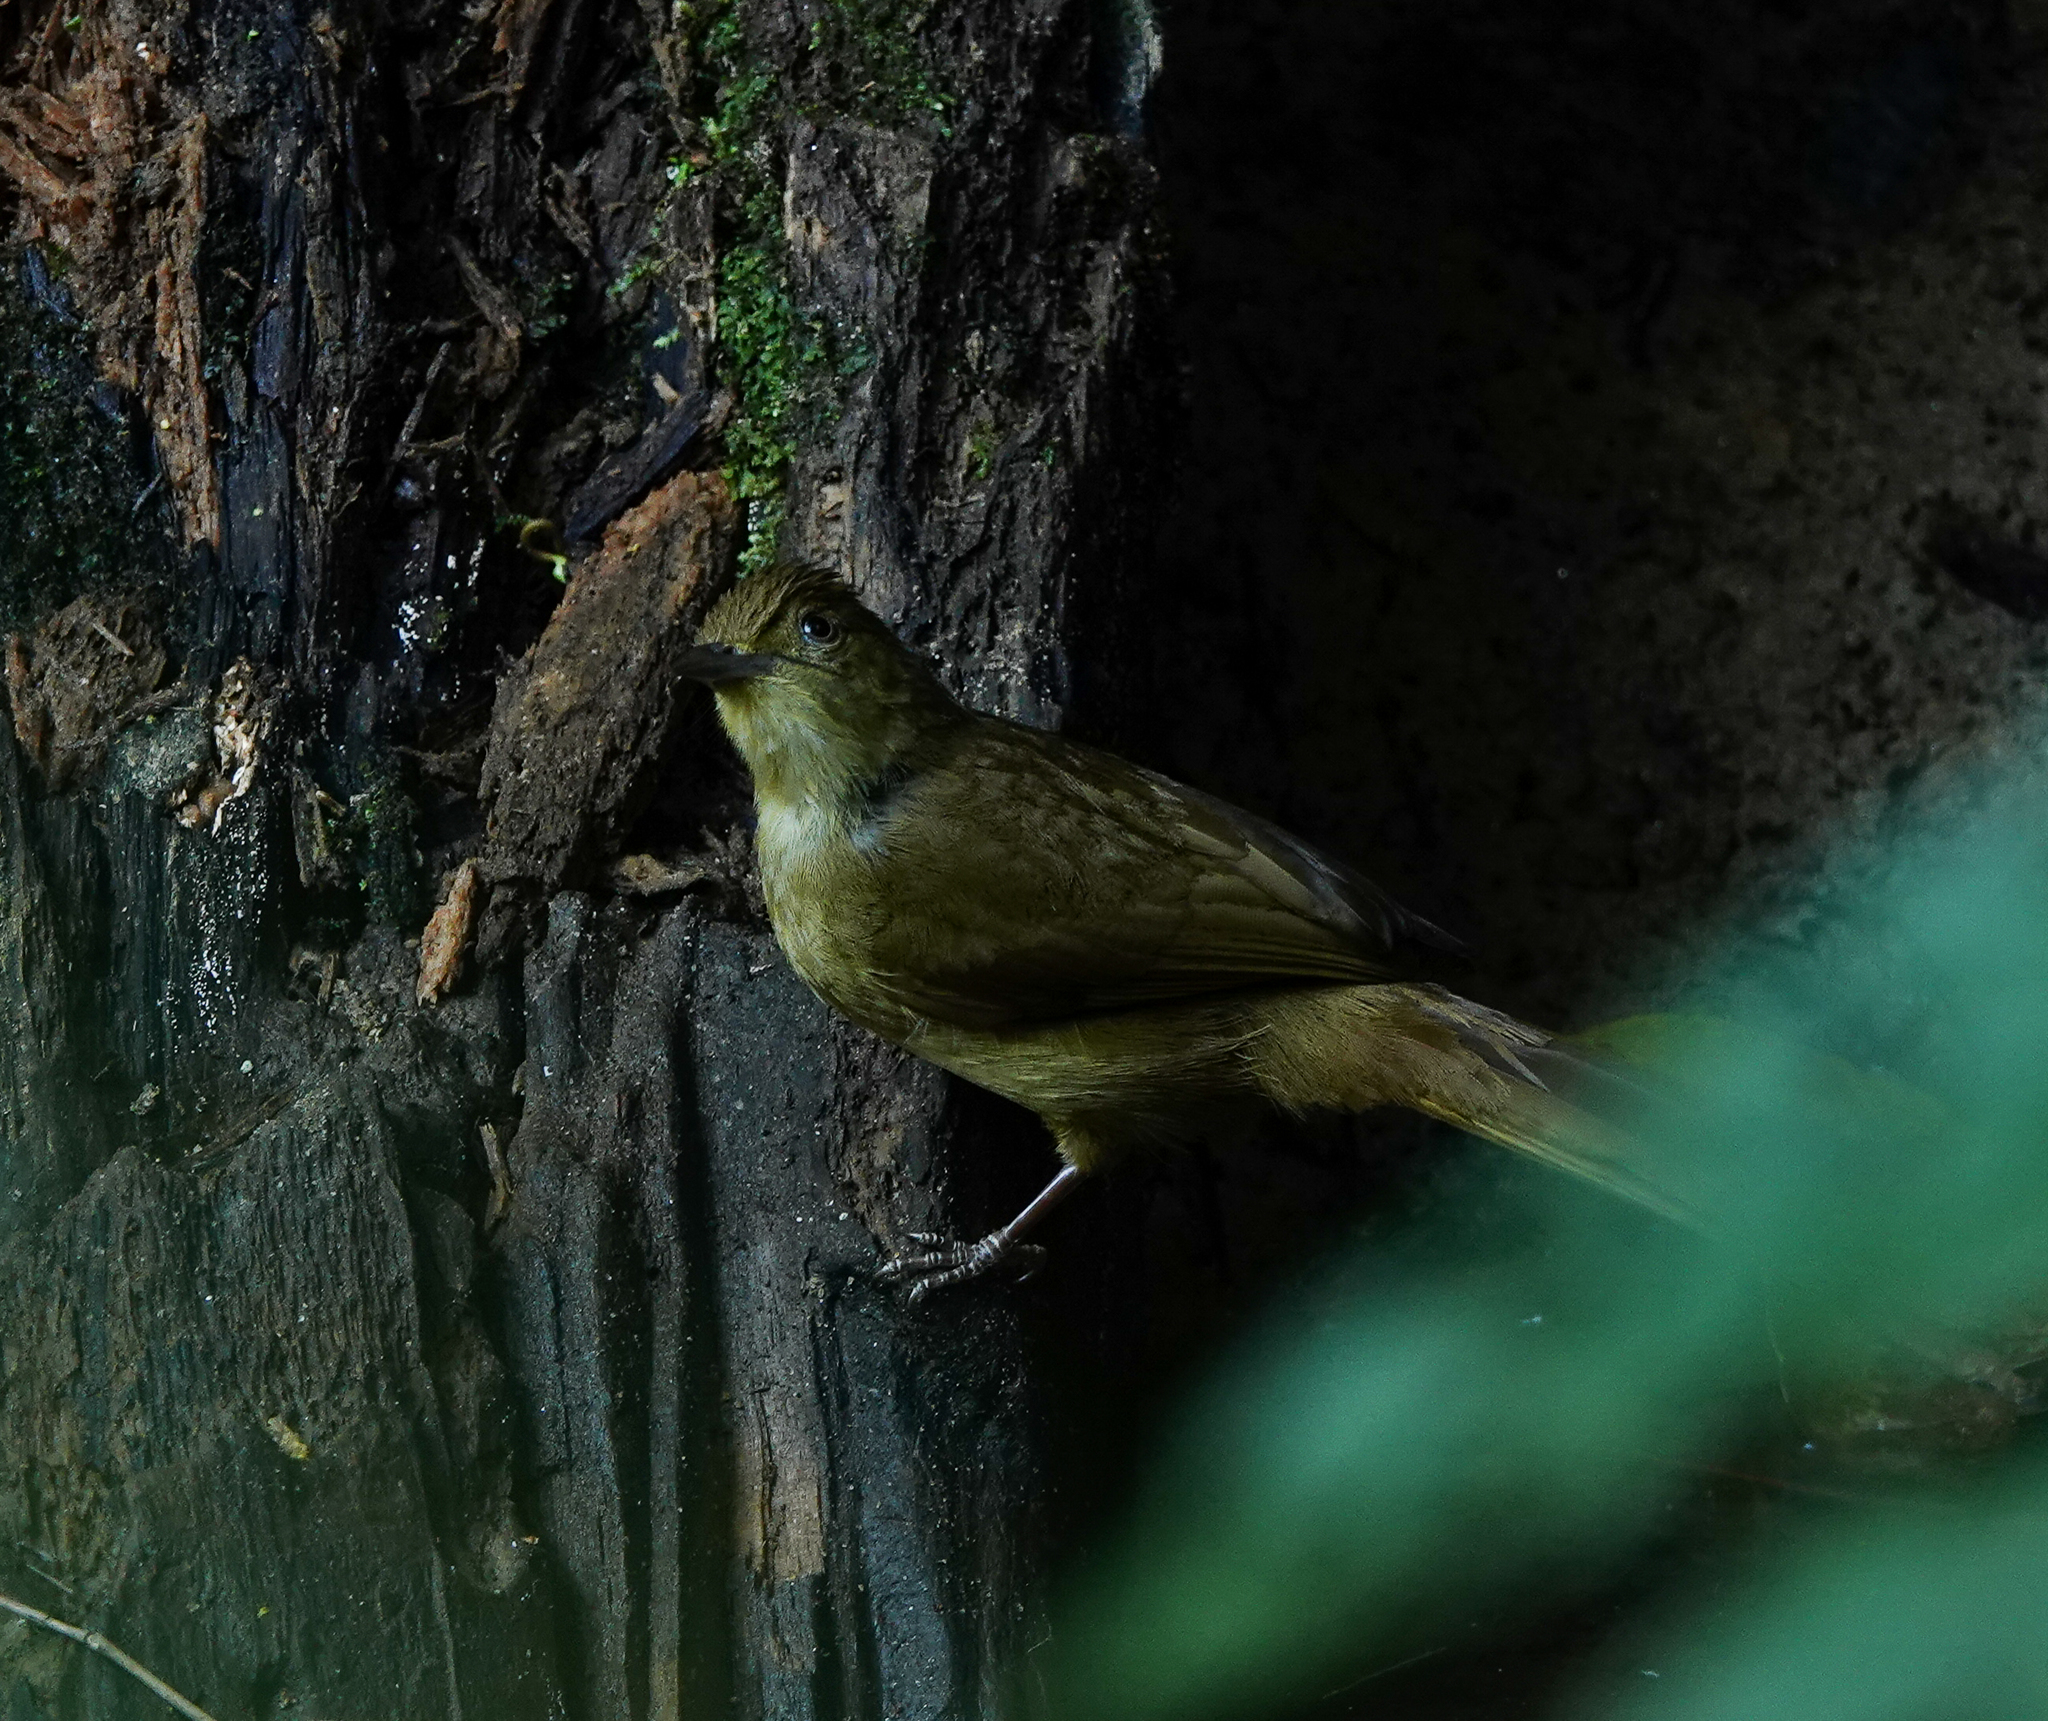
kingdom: Animalia
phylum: Chordata
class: Aves
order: Passeriformes
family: Pycnonotidae
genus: Iole
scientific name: Iole virescens
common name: Olive bulbul
